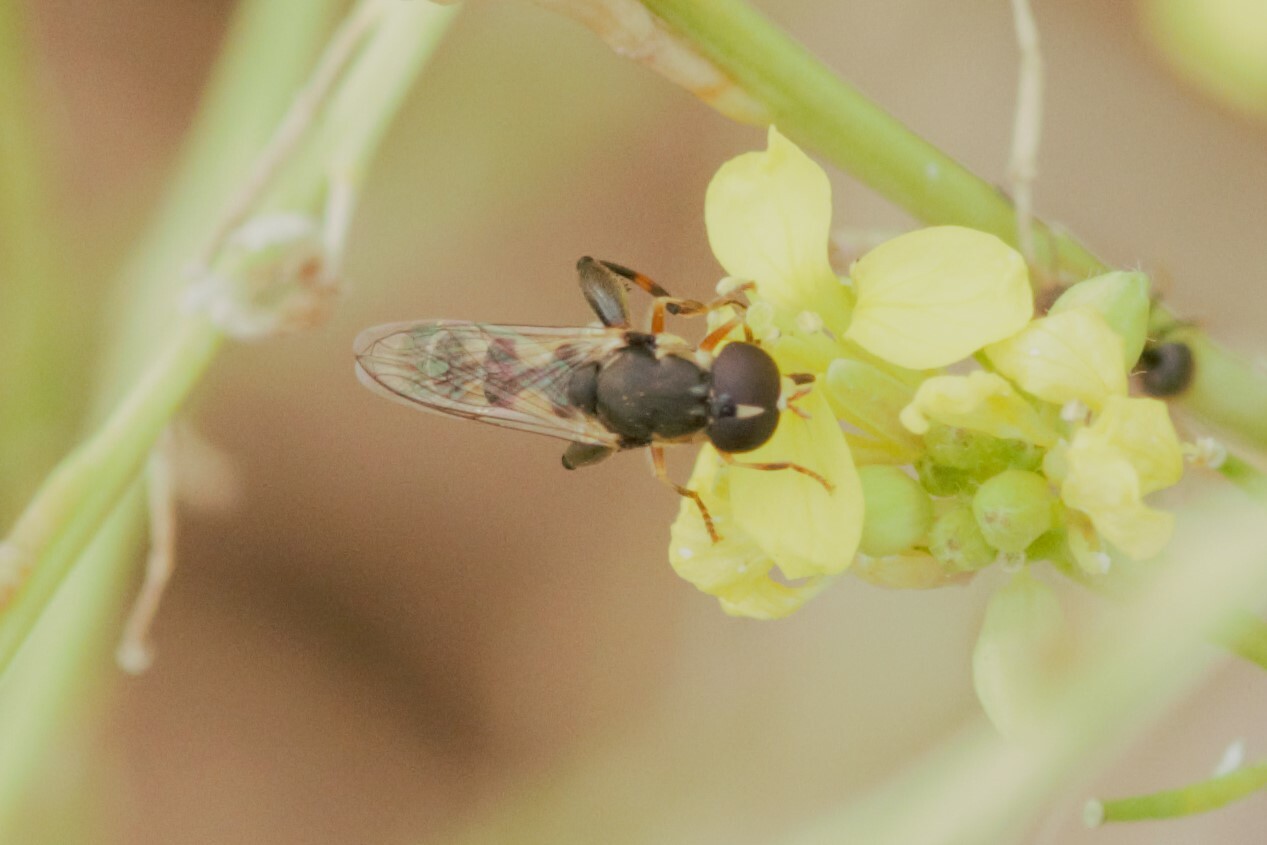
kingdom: Animalia
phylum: Arthropoda
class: Insecta
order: Diptera
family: Syrphidae
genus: Syritta
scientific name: Syritta pipiens
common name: Hover fly
